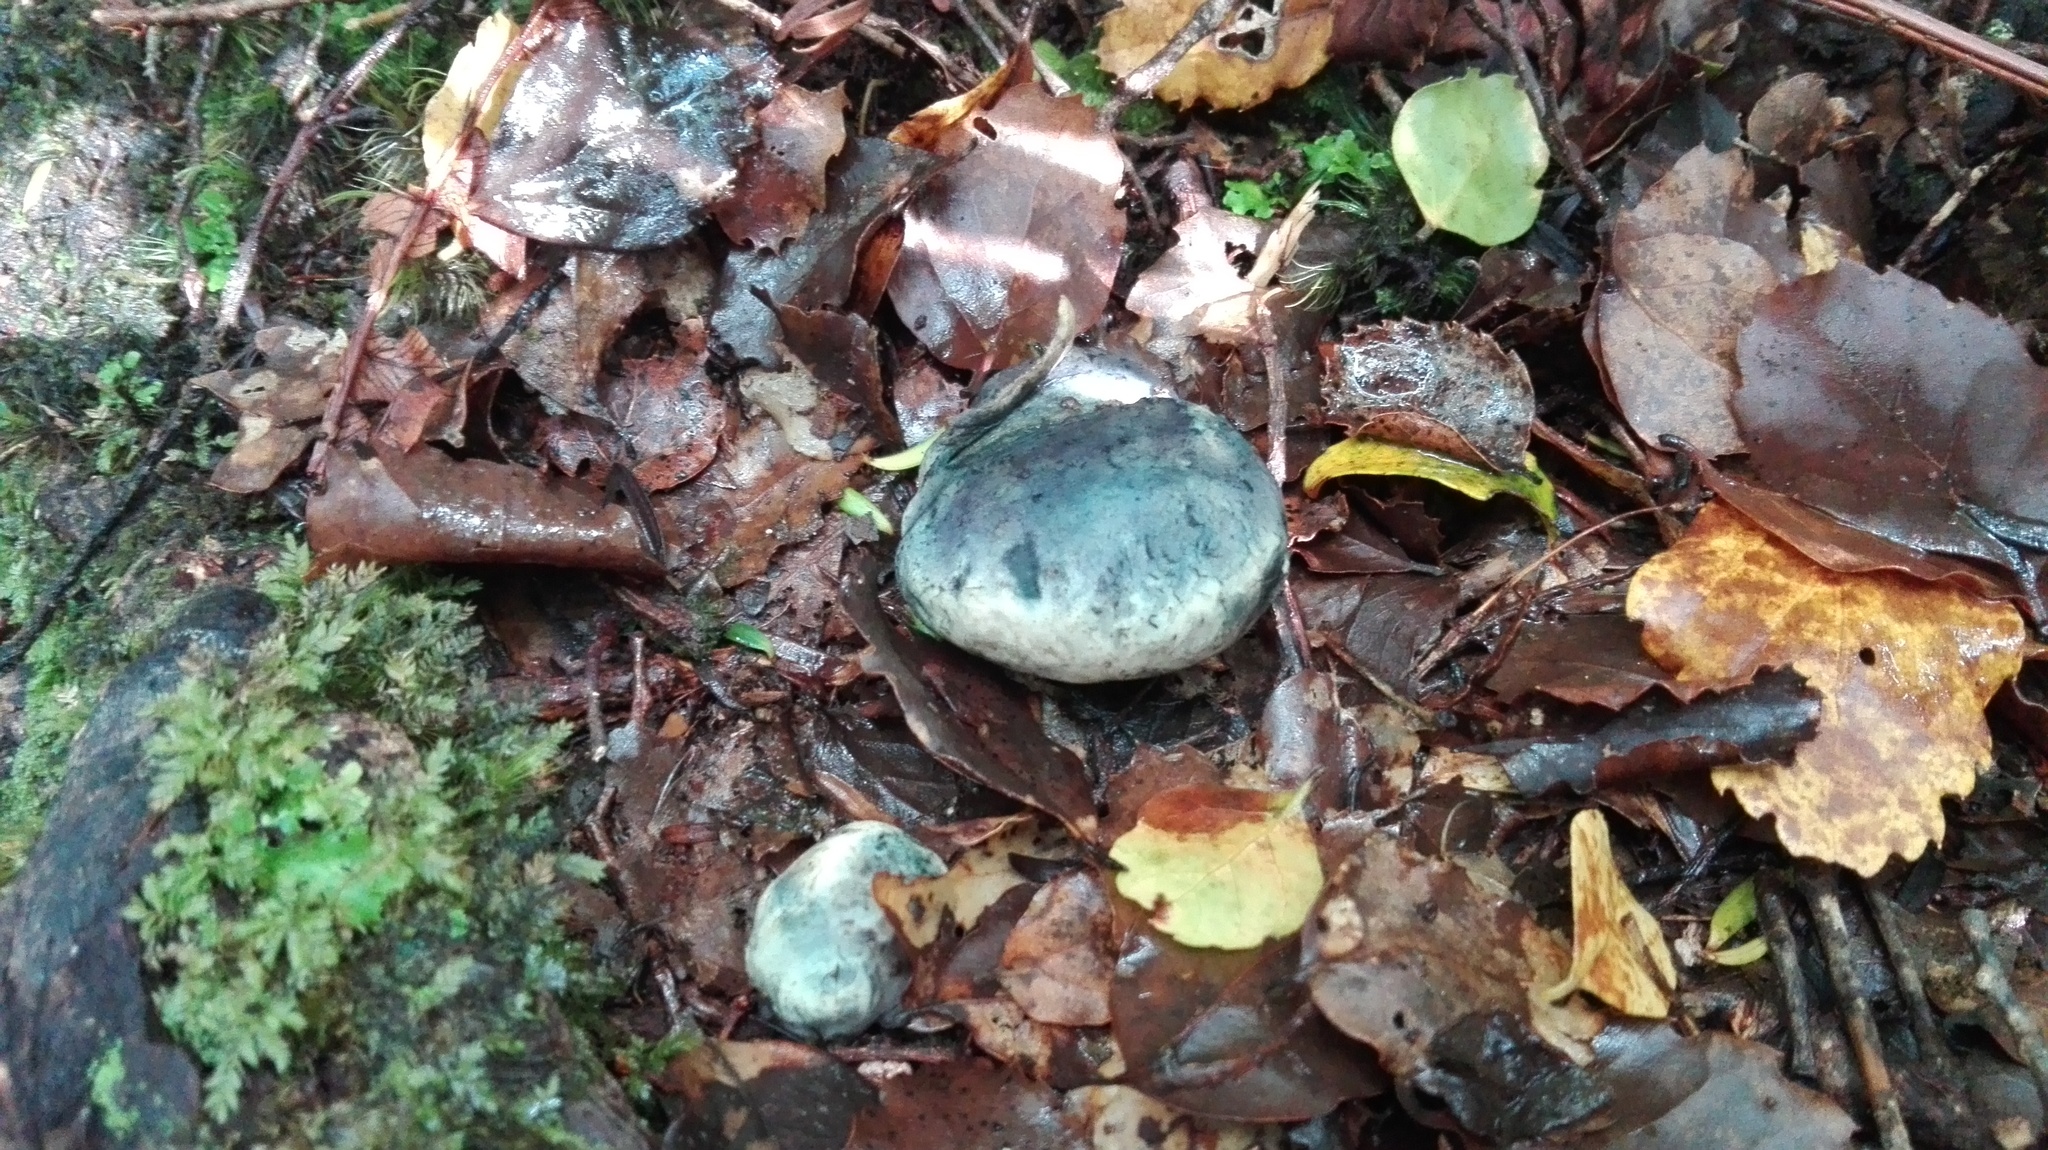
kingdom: Fungi
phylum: Basidiomycota
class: Agaricomycetes
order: Boletales
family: Boletaceae
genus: Leccinum
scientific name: Leccinum pachyderme
